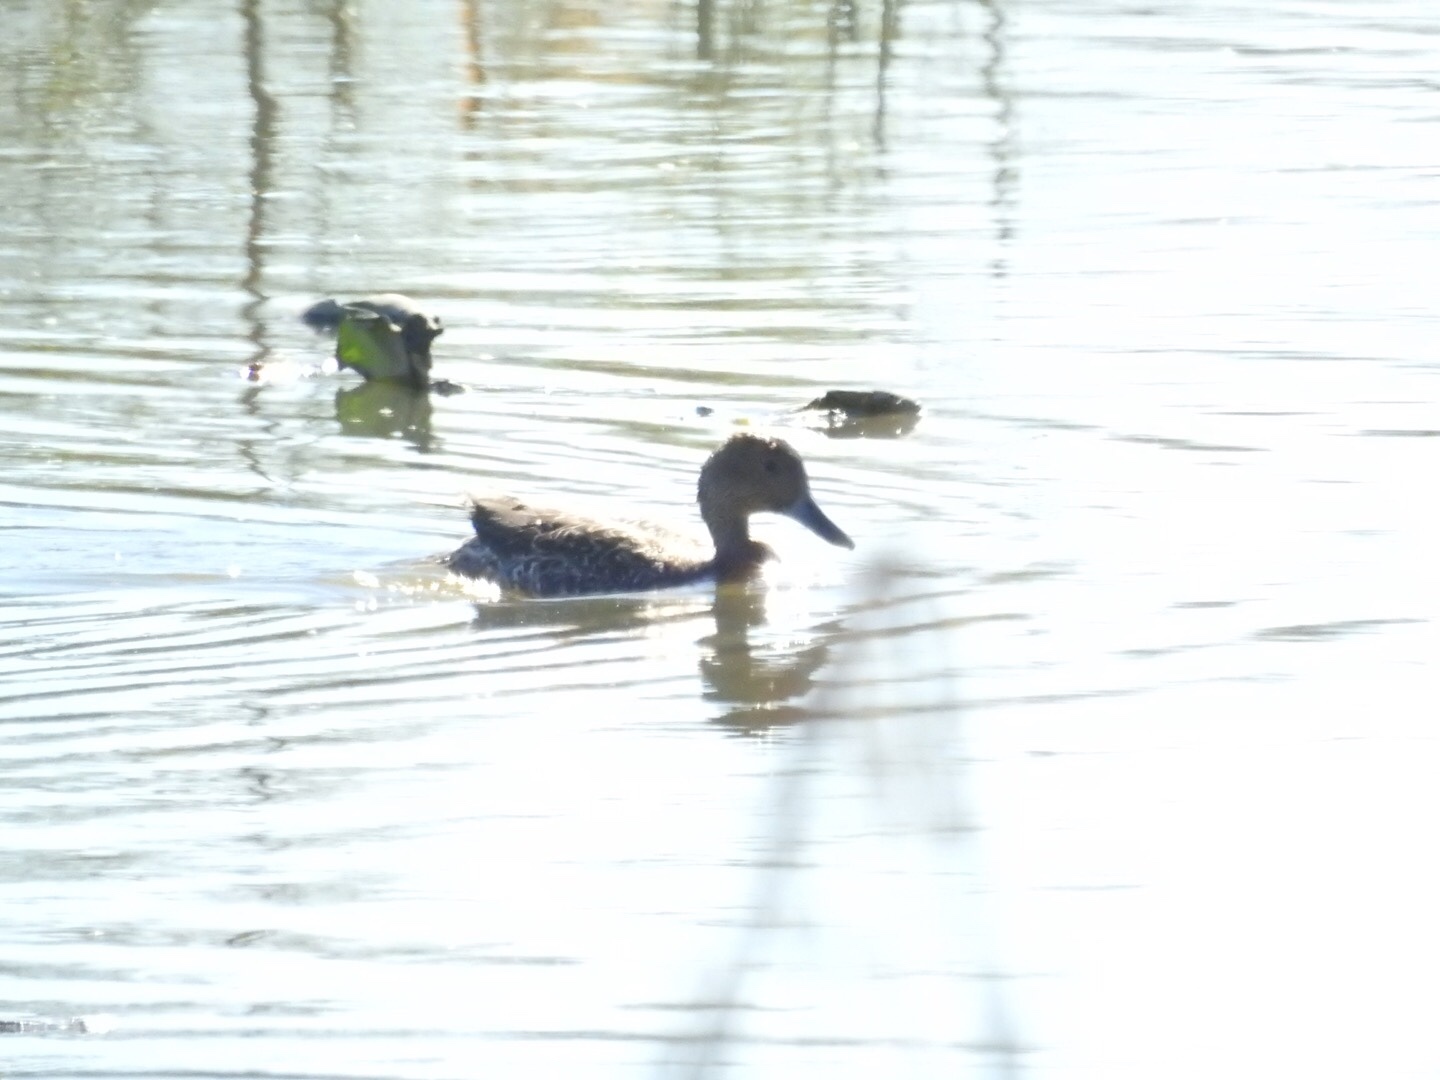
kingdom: Animalia
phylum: Chordata
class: Aves
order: Anseriformes
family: Anatidae
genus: Anas
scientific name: Anas acuta
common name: Northern pintail
